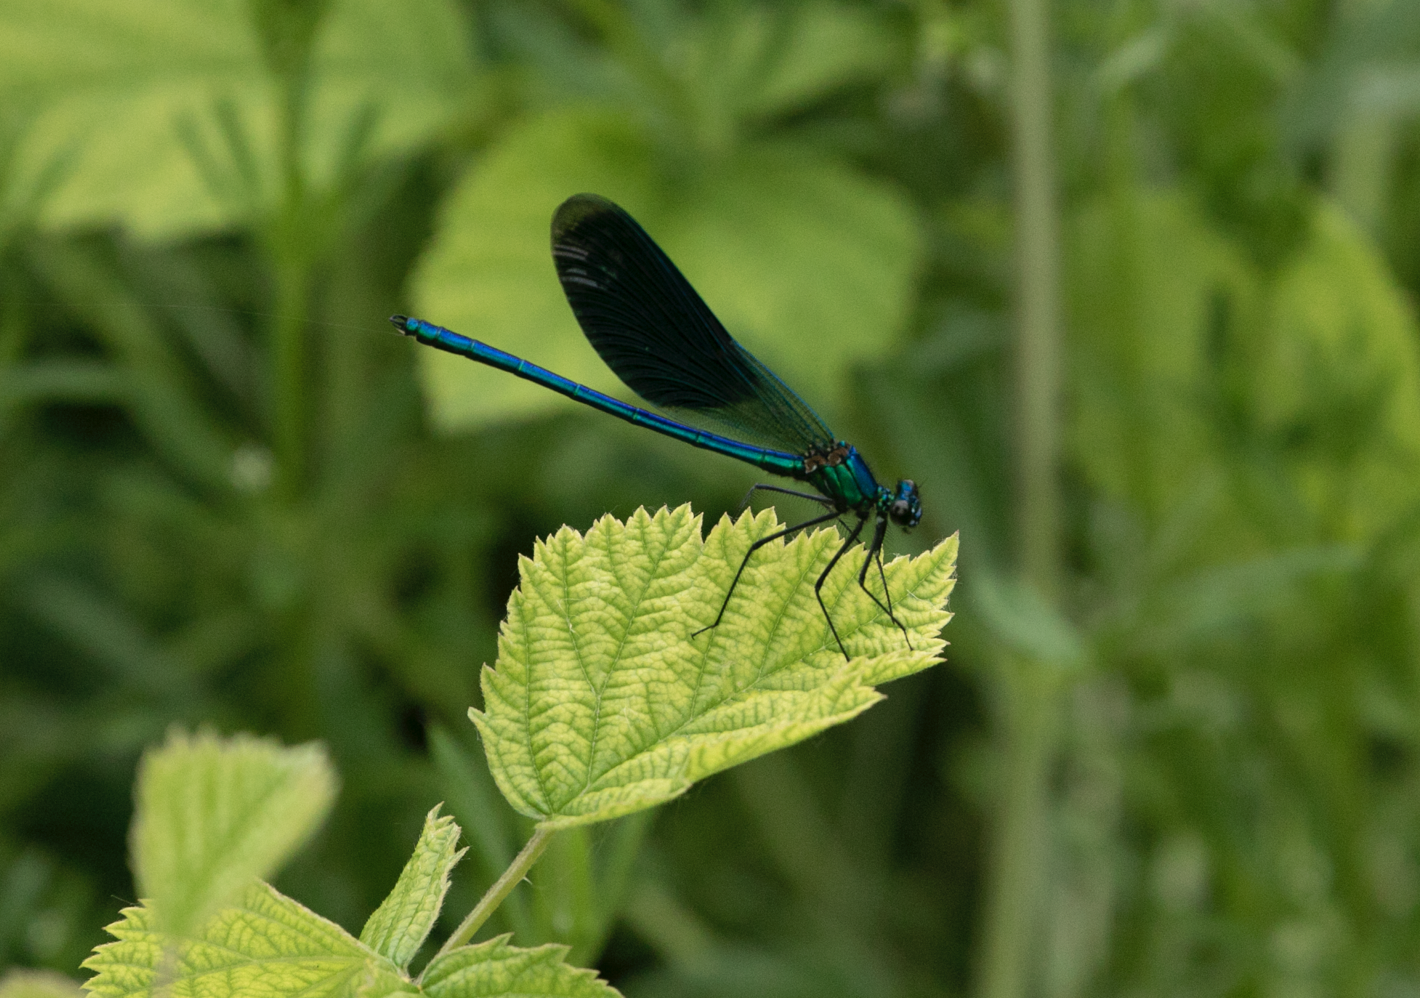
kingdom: Animalia
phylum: Arthropoda
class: Insecta
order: Odonata
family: Calopterygidae
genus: Calopteryx
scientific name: Calopteryx splendens
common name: Banded demoiselle
